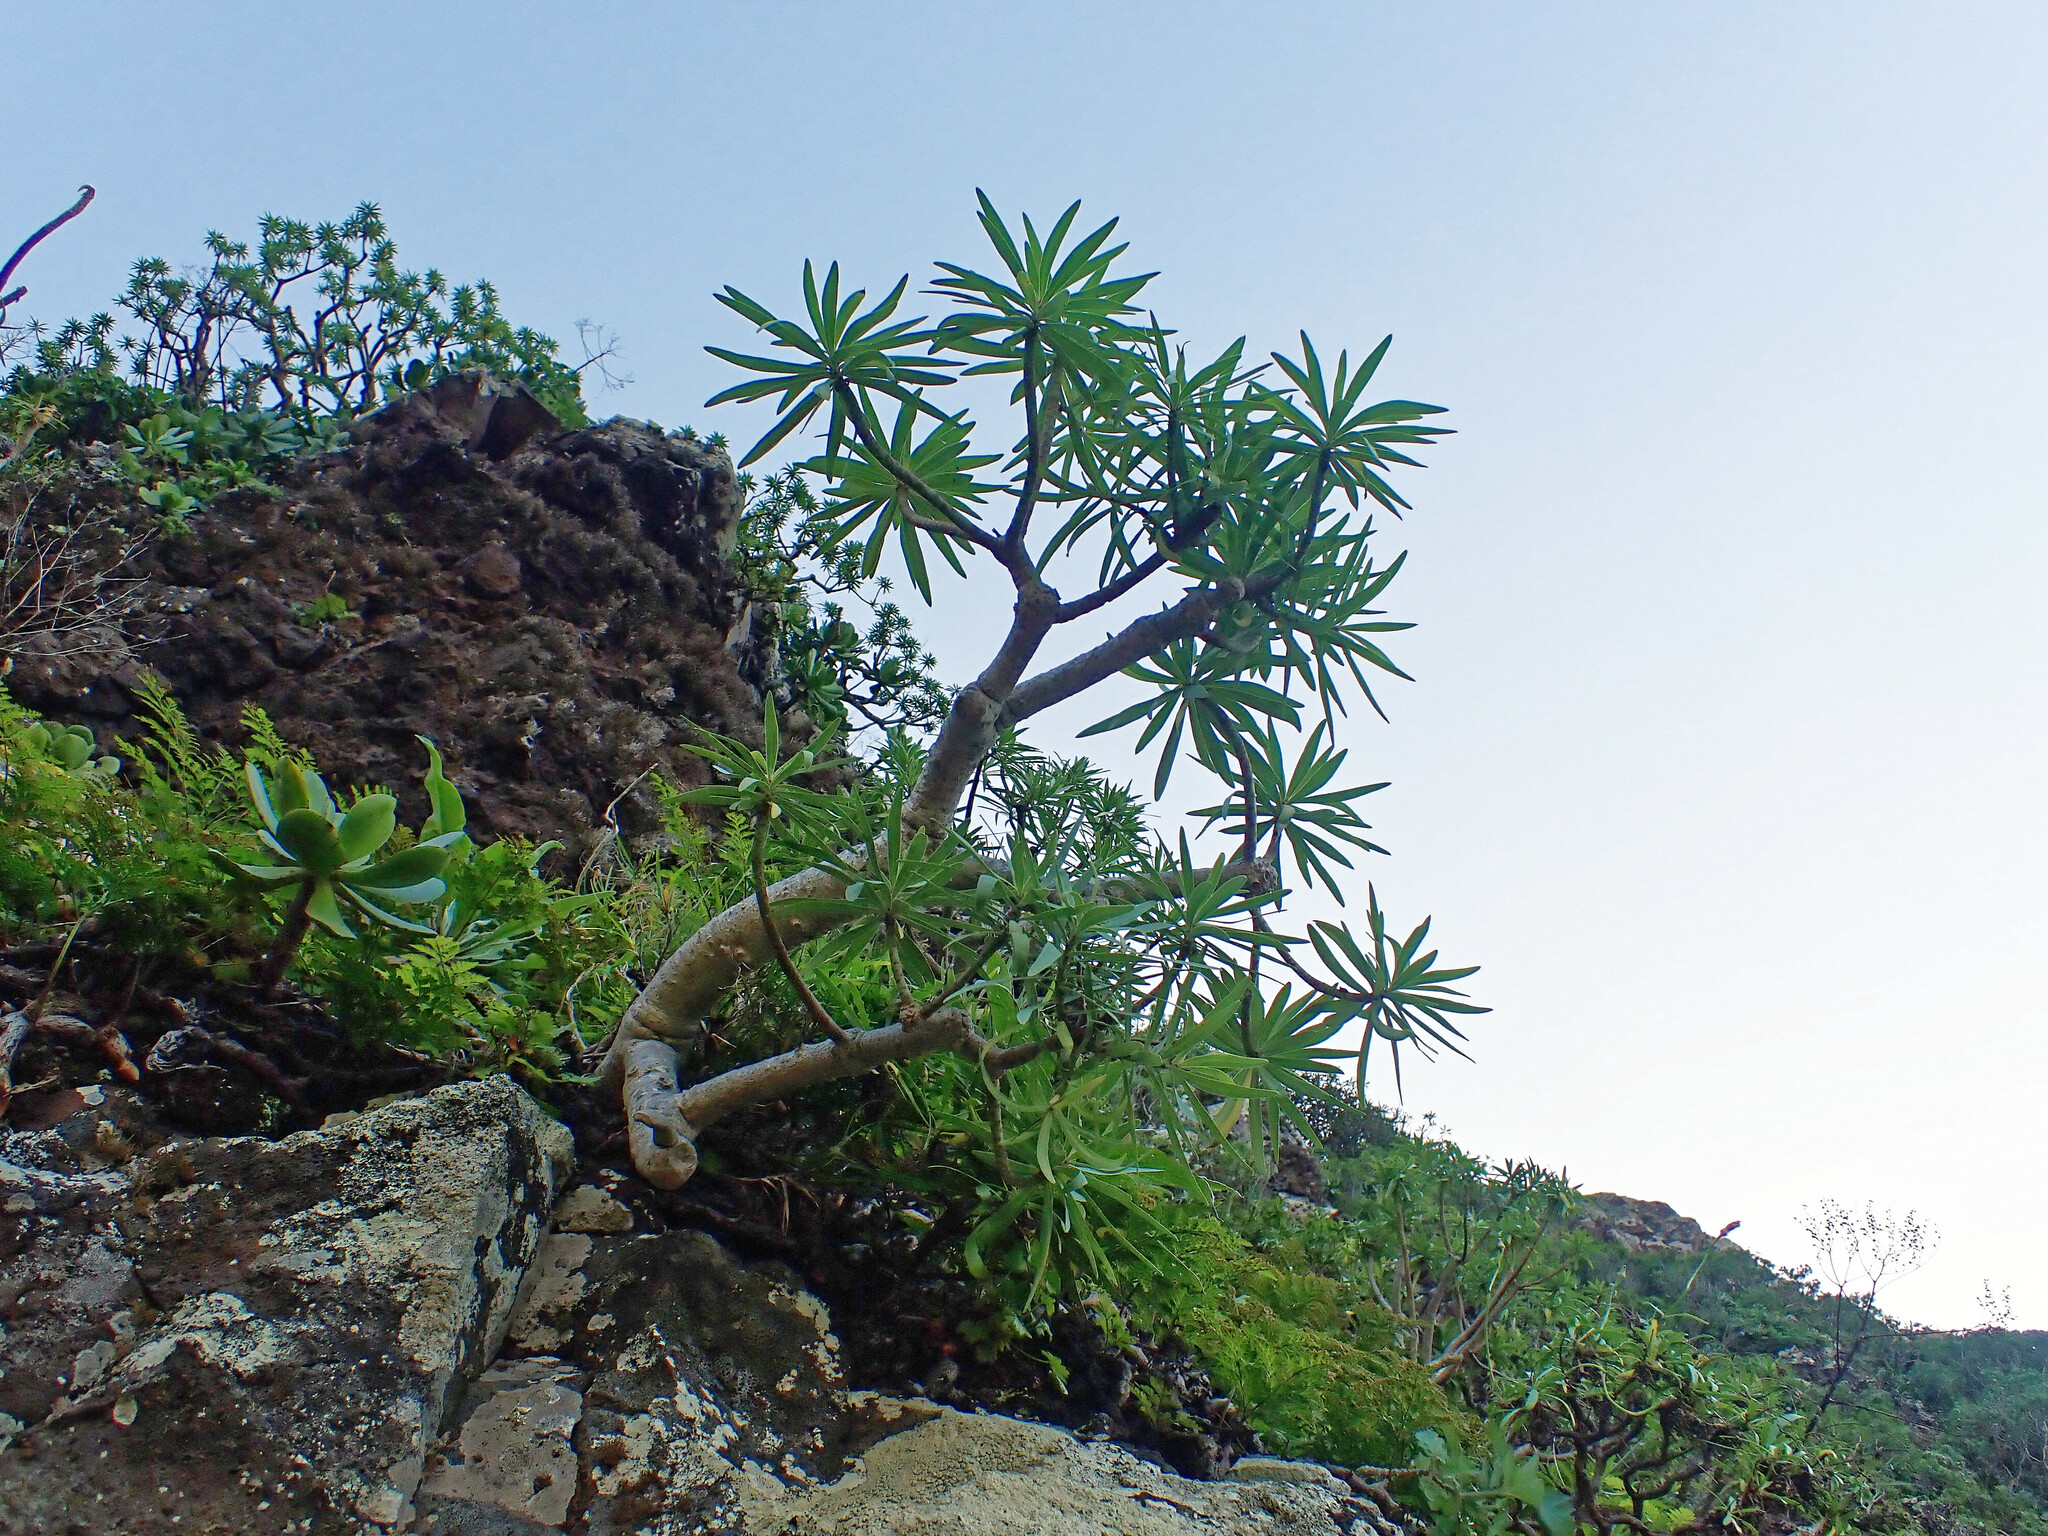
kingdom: Plantae
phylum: Tracheophyta
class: Magnoliopsida
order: Malpighiales
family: Euphorbiaceae
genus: Euphorbia
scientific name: Euphorbia piscatoria
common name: Fish-stunning spurge
